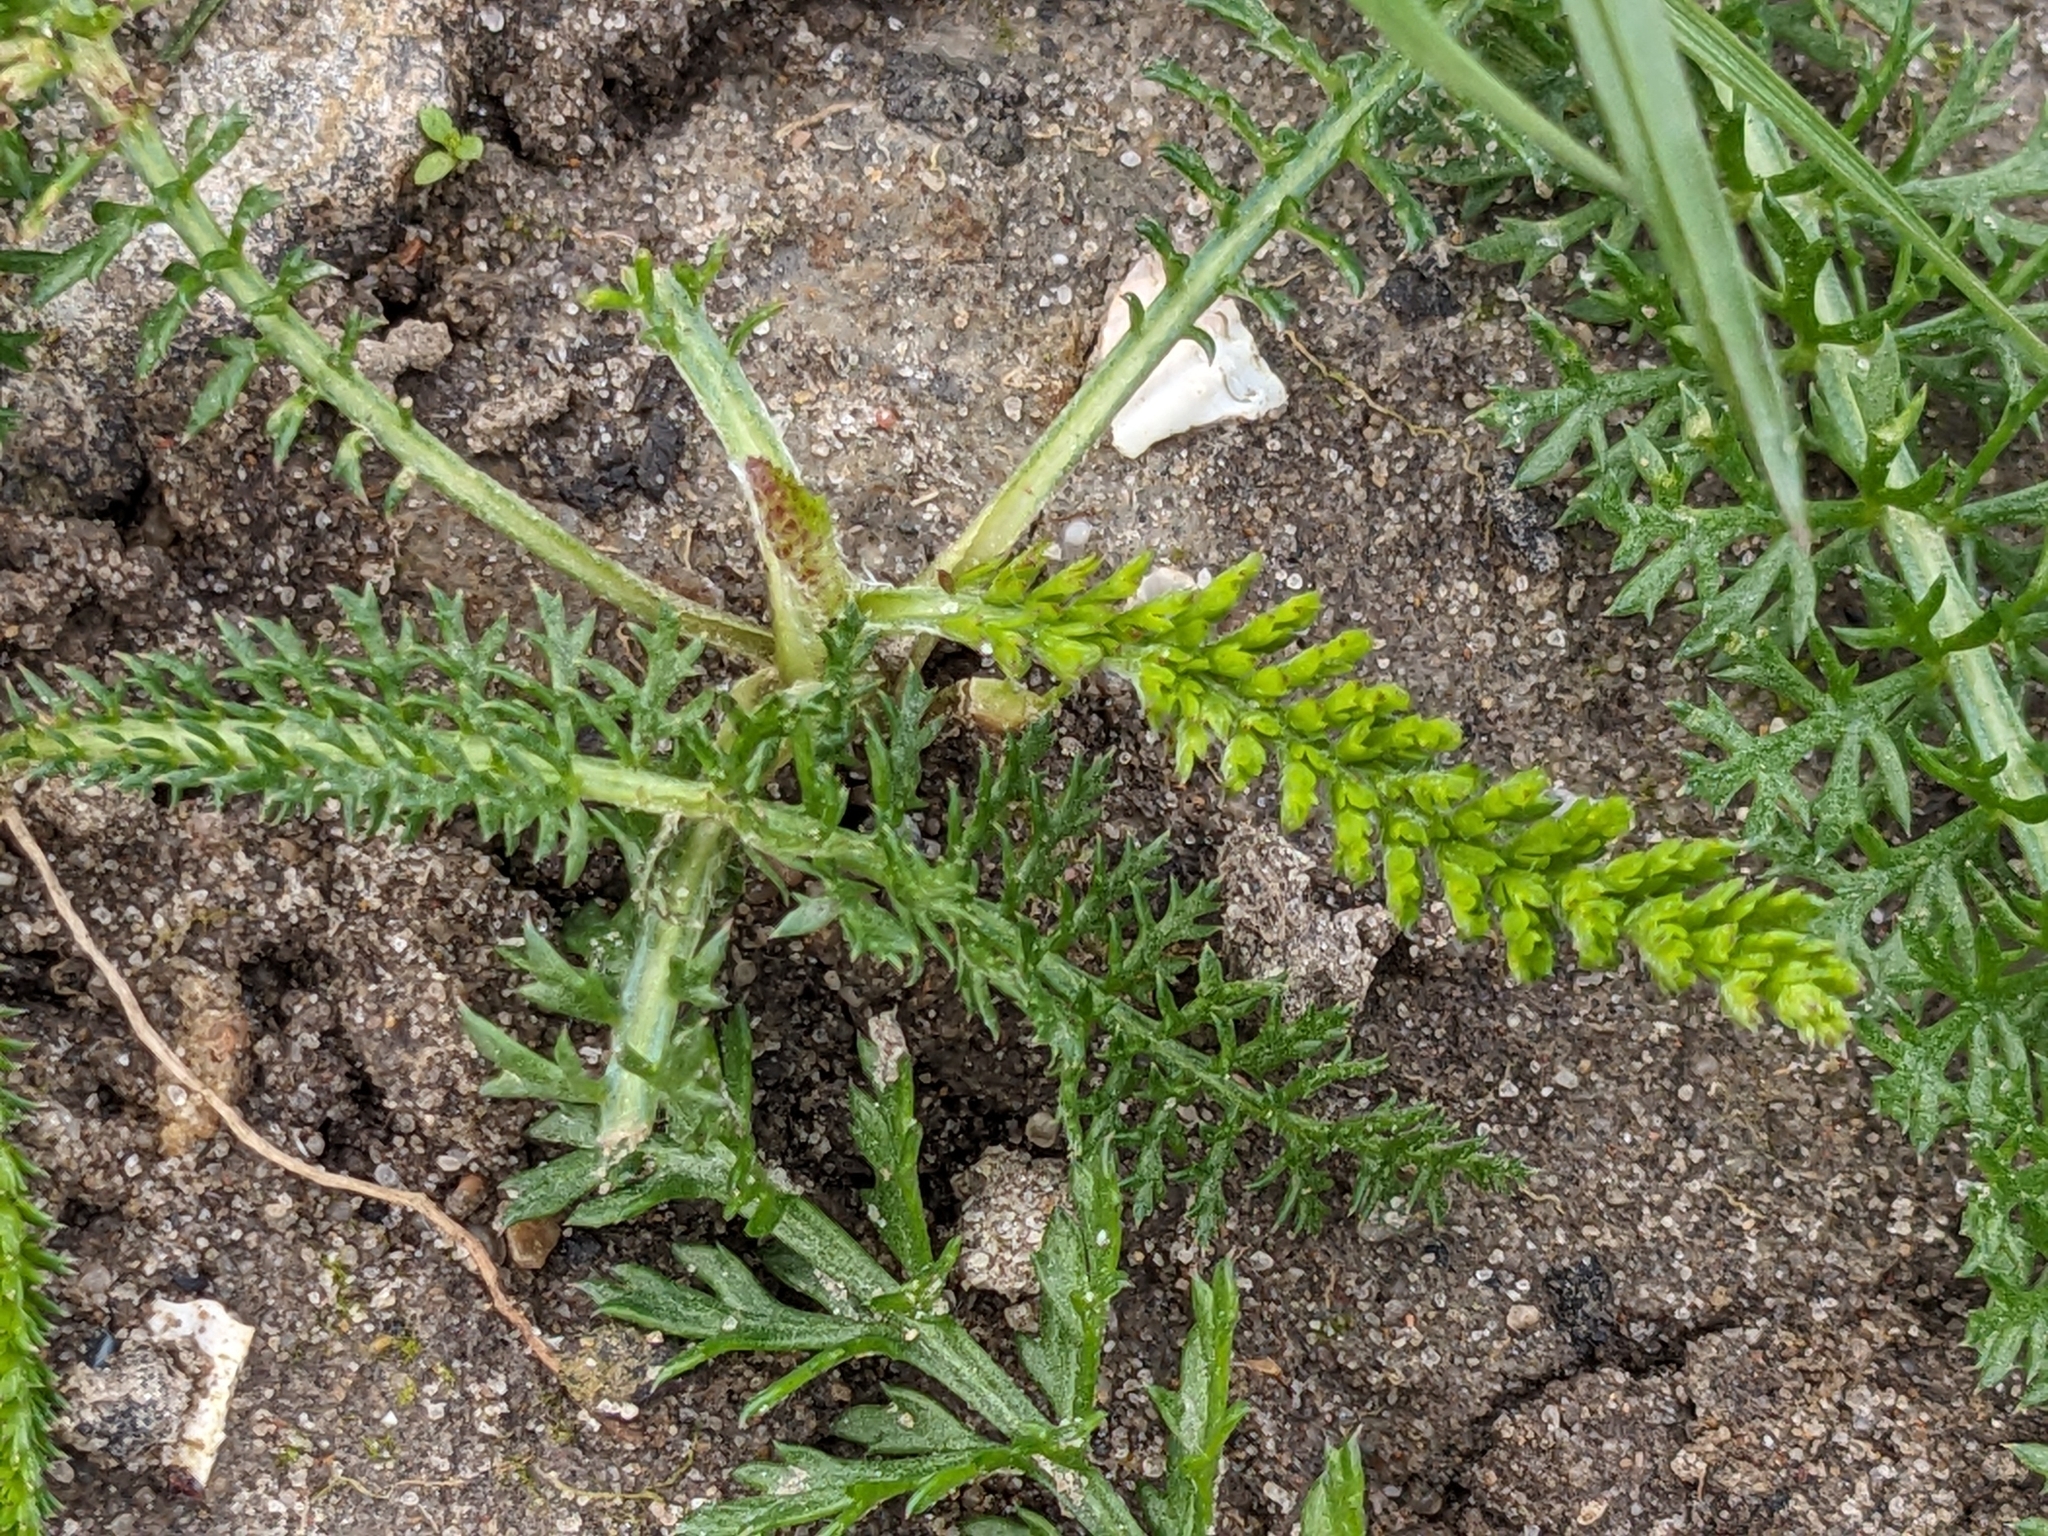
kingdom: Plantae
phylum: Tracheophyta
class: Magnoliopsida
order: Asterales
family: Asteraceae
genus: Achillea
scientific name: Achillea millefolium
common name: Yarrow
